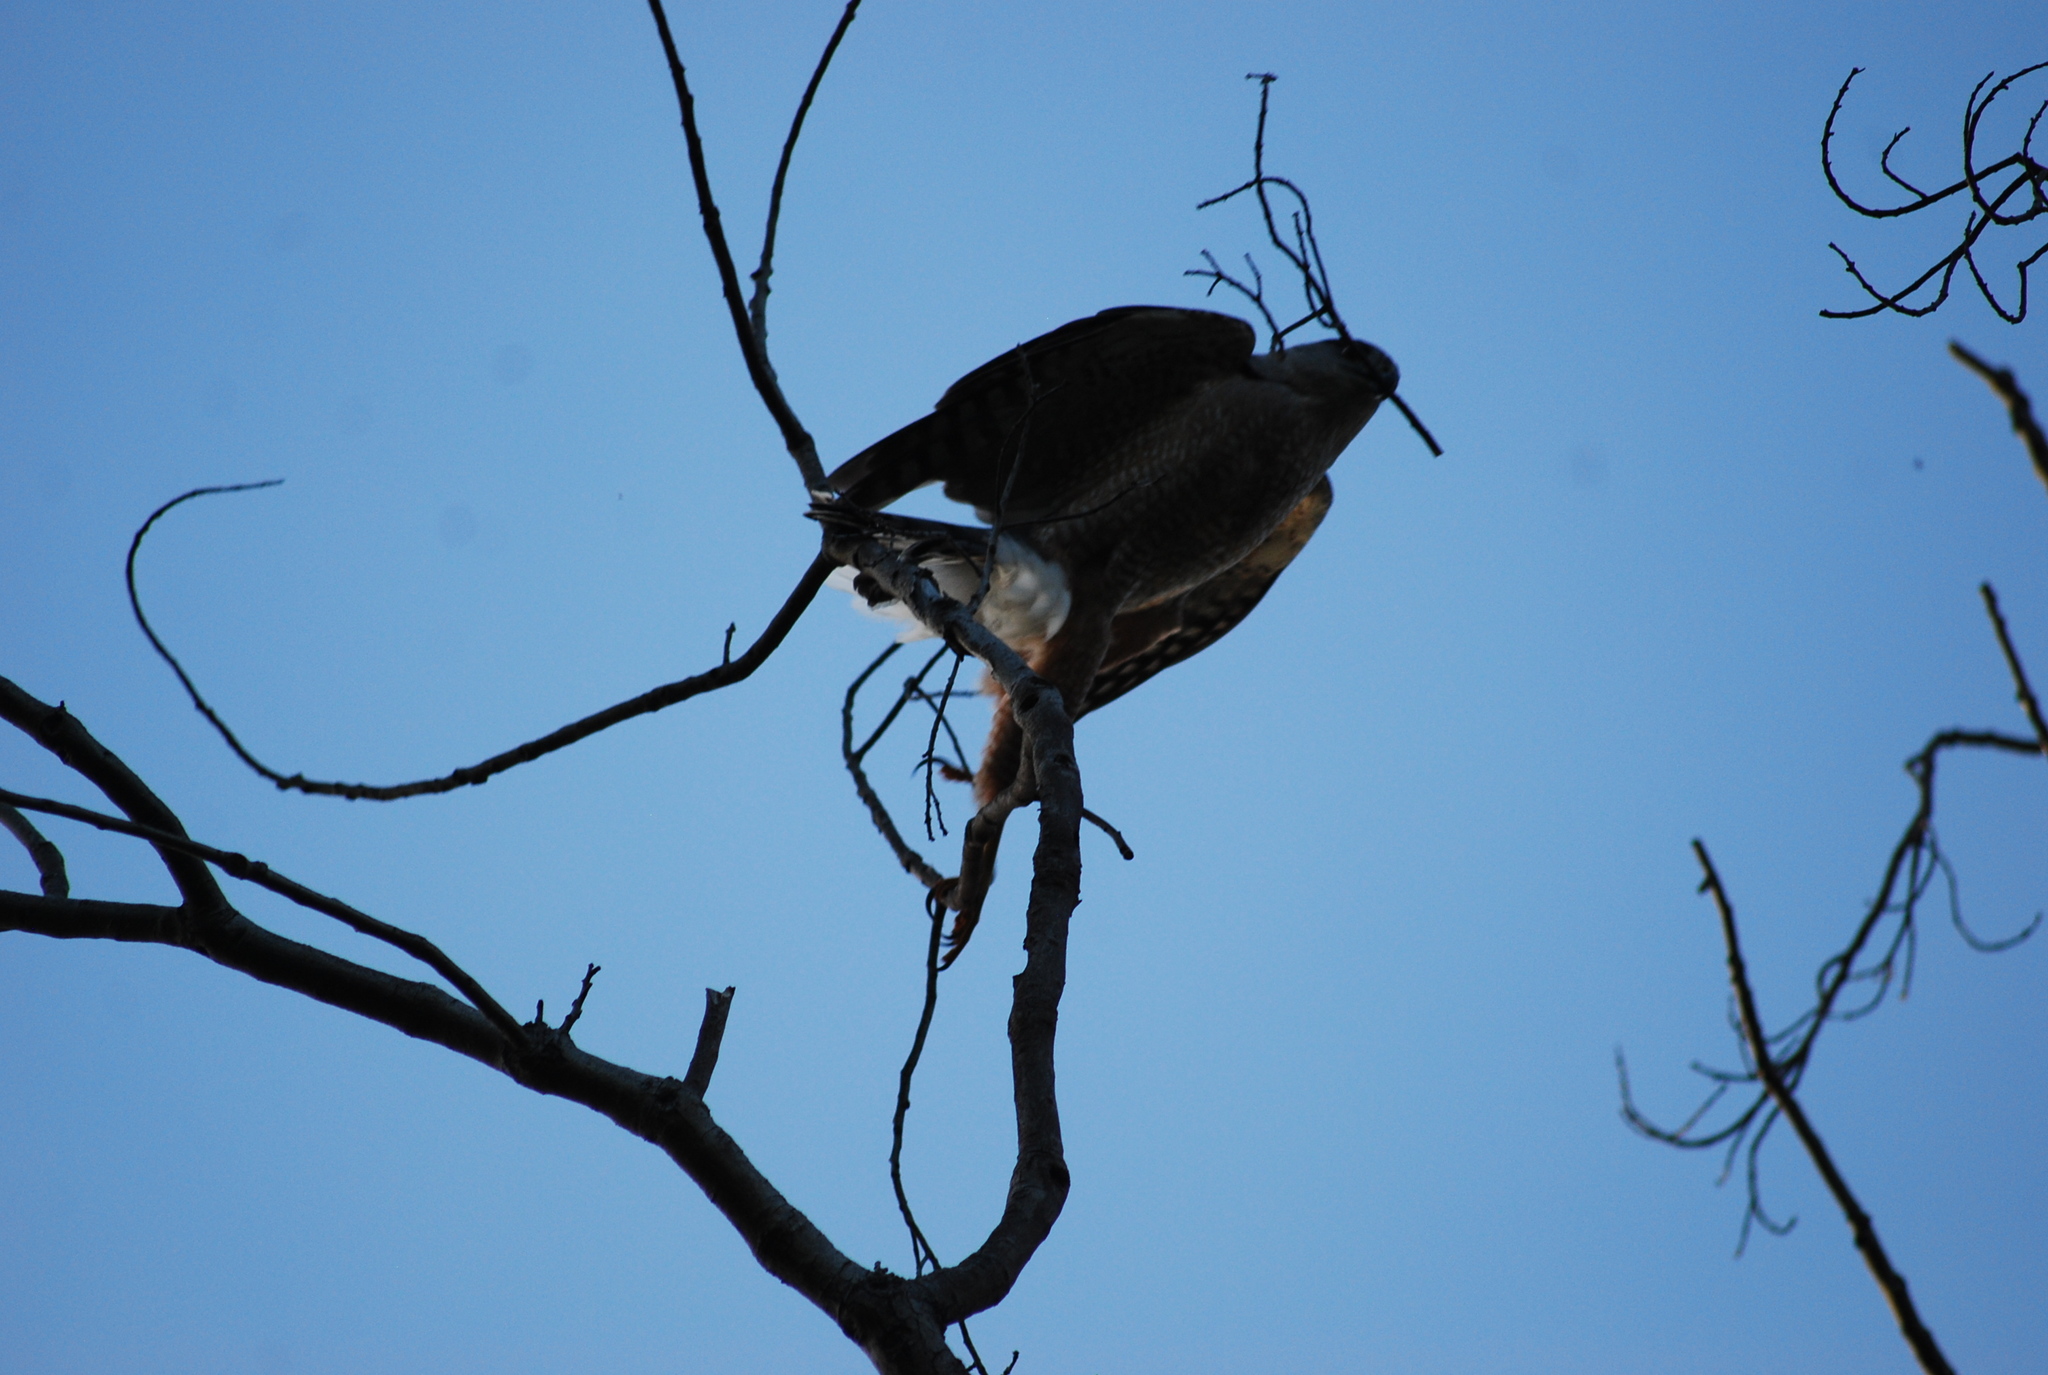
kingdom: Animalia
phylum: Chordata
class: Aves
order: Accipitriformes
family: Accipitridae
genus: Accipiter
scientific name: Accipiter cooperii
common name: Cooper's hawk
